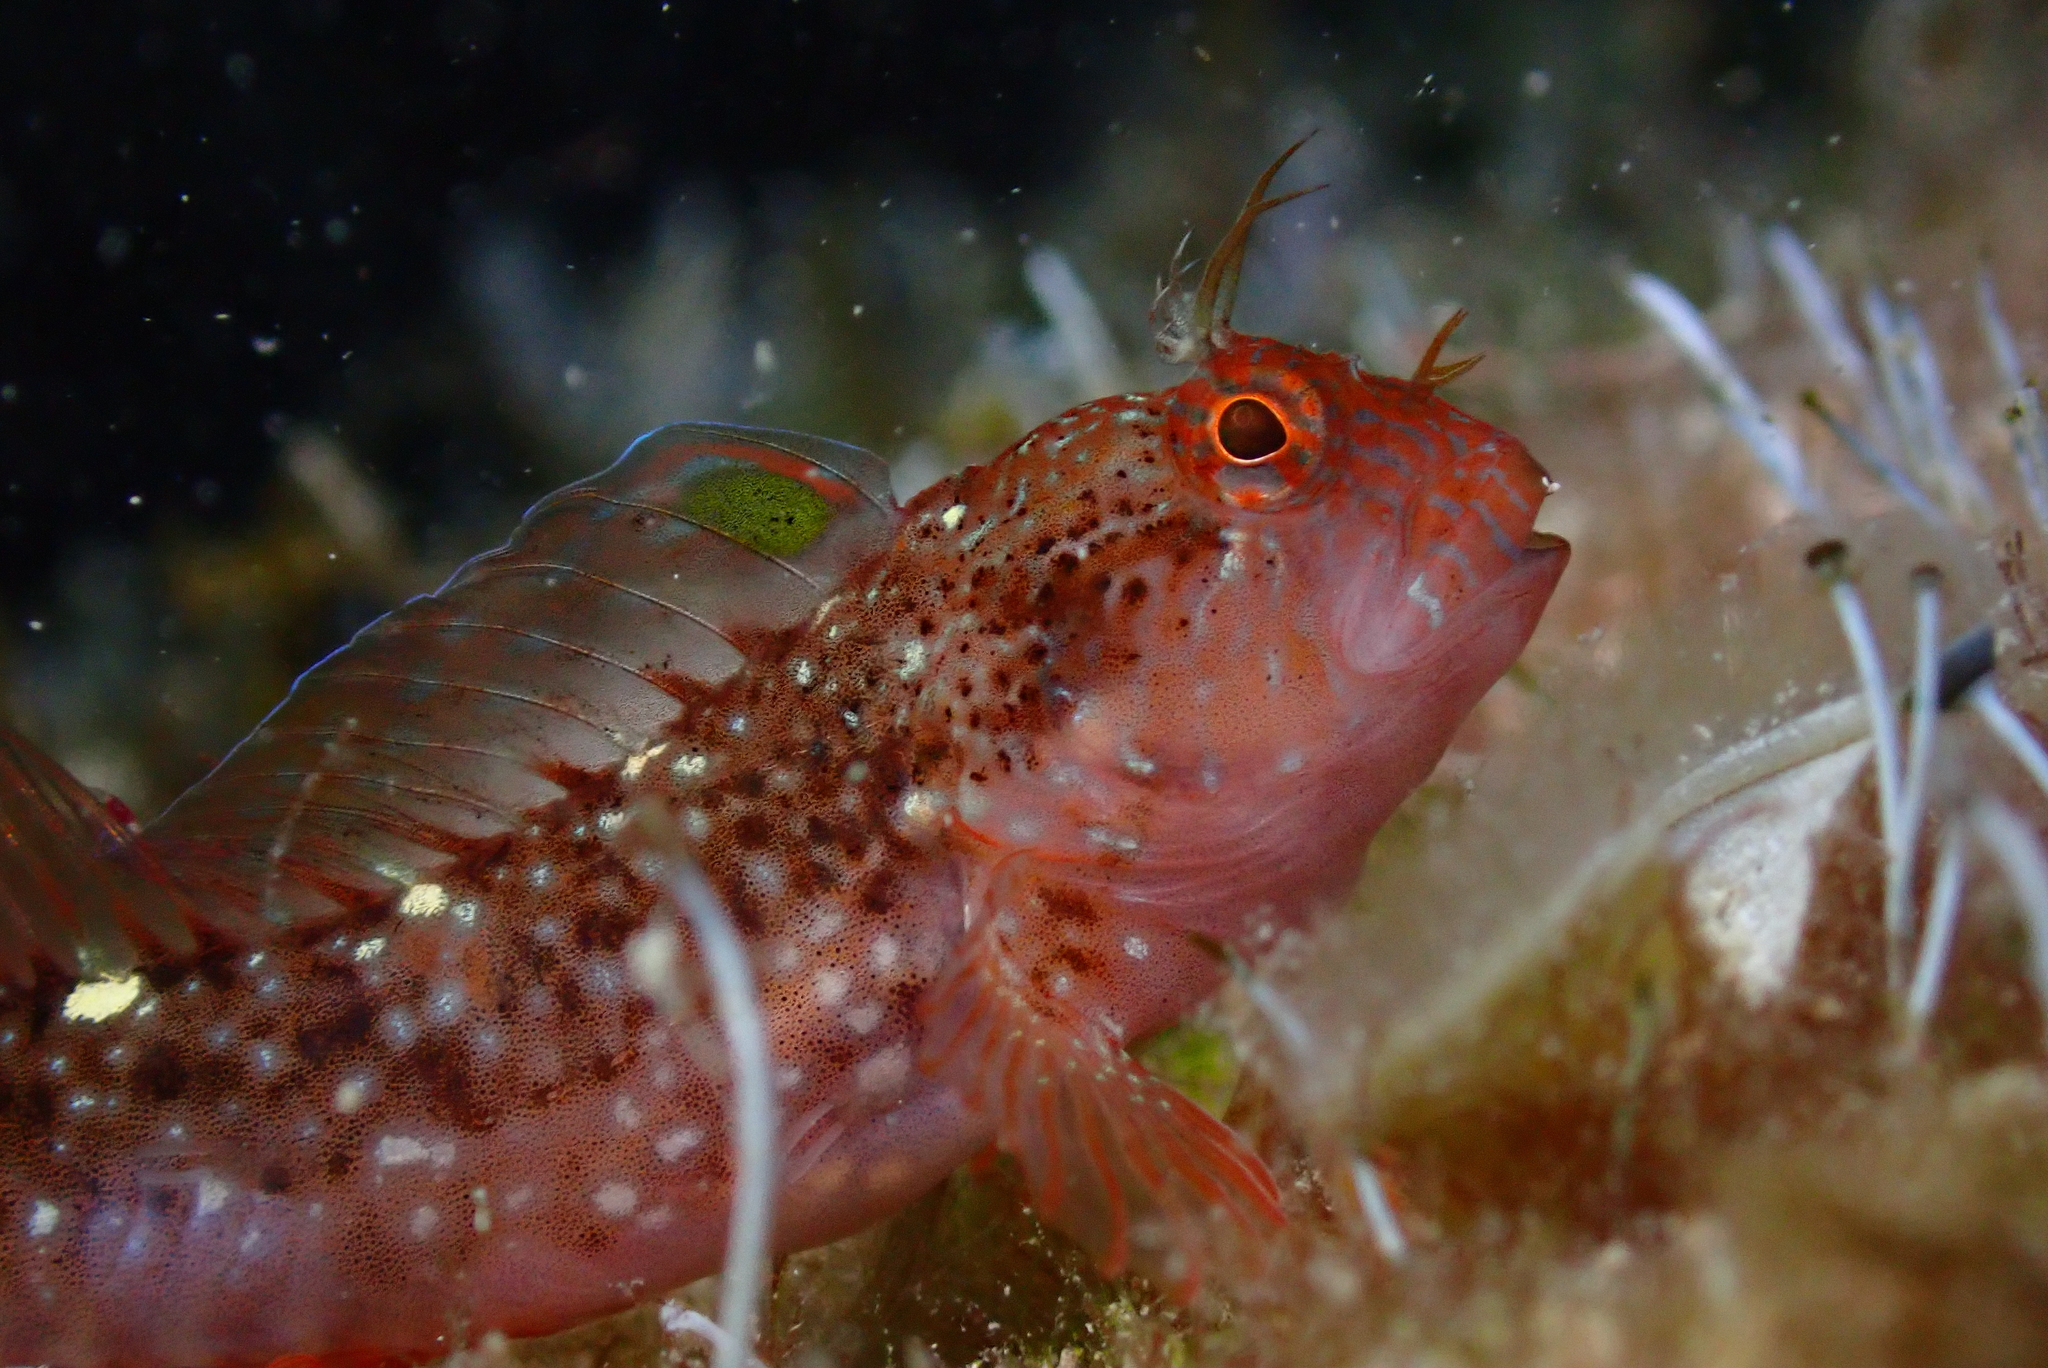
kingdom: Animalia
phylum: Chordata
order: Perciformes
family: Blenniidae
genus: Parablennius
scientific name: Parablennius zvonimiri
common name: Red blenny
